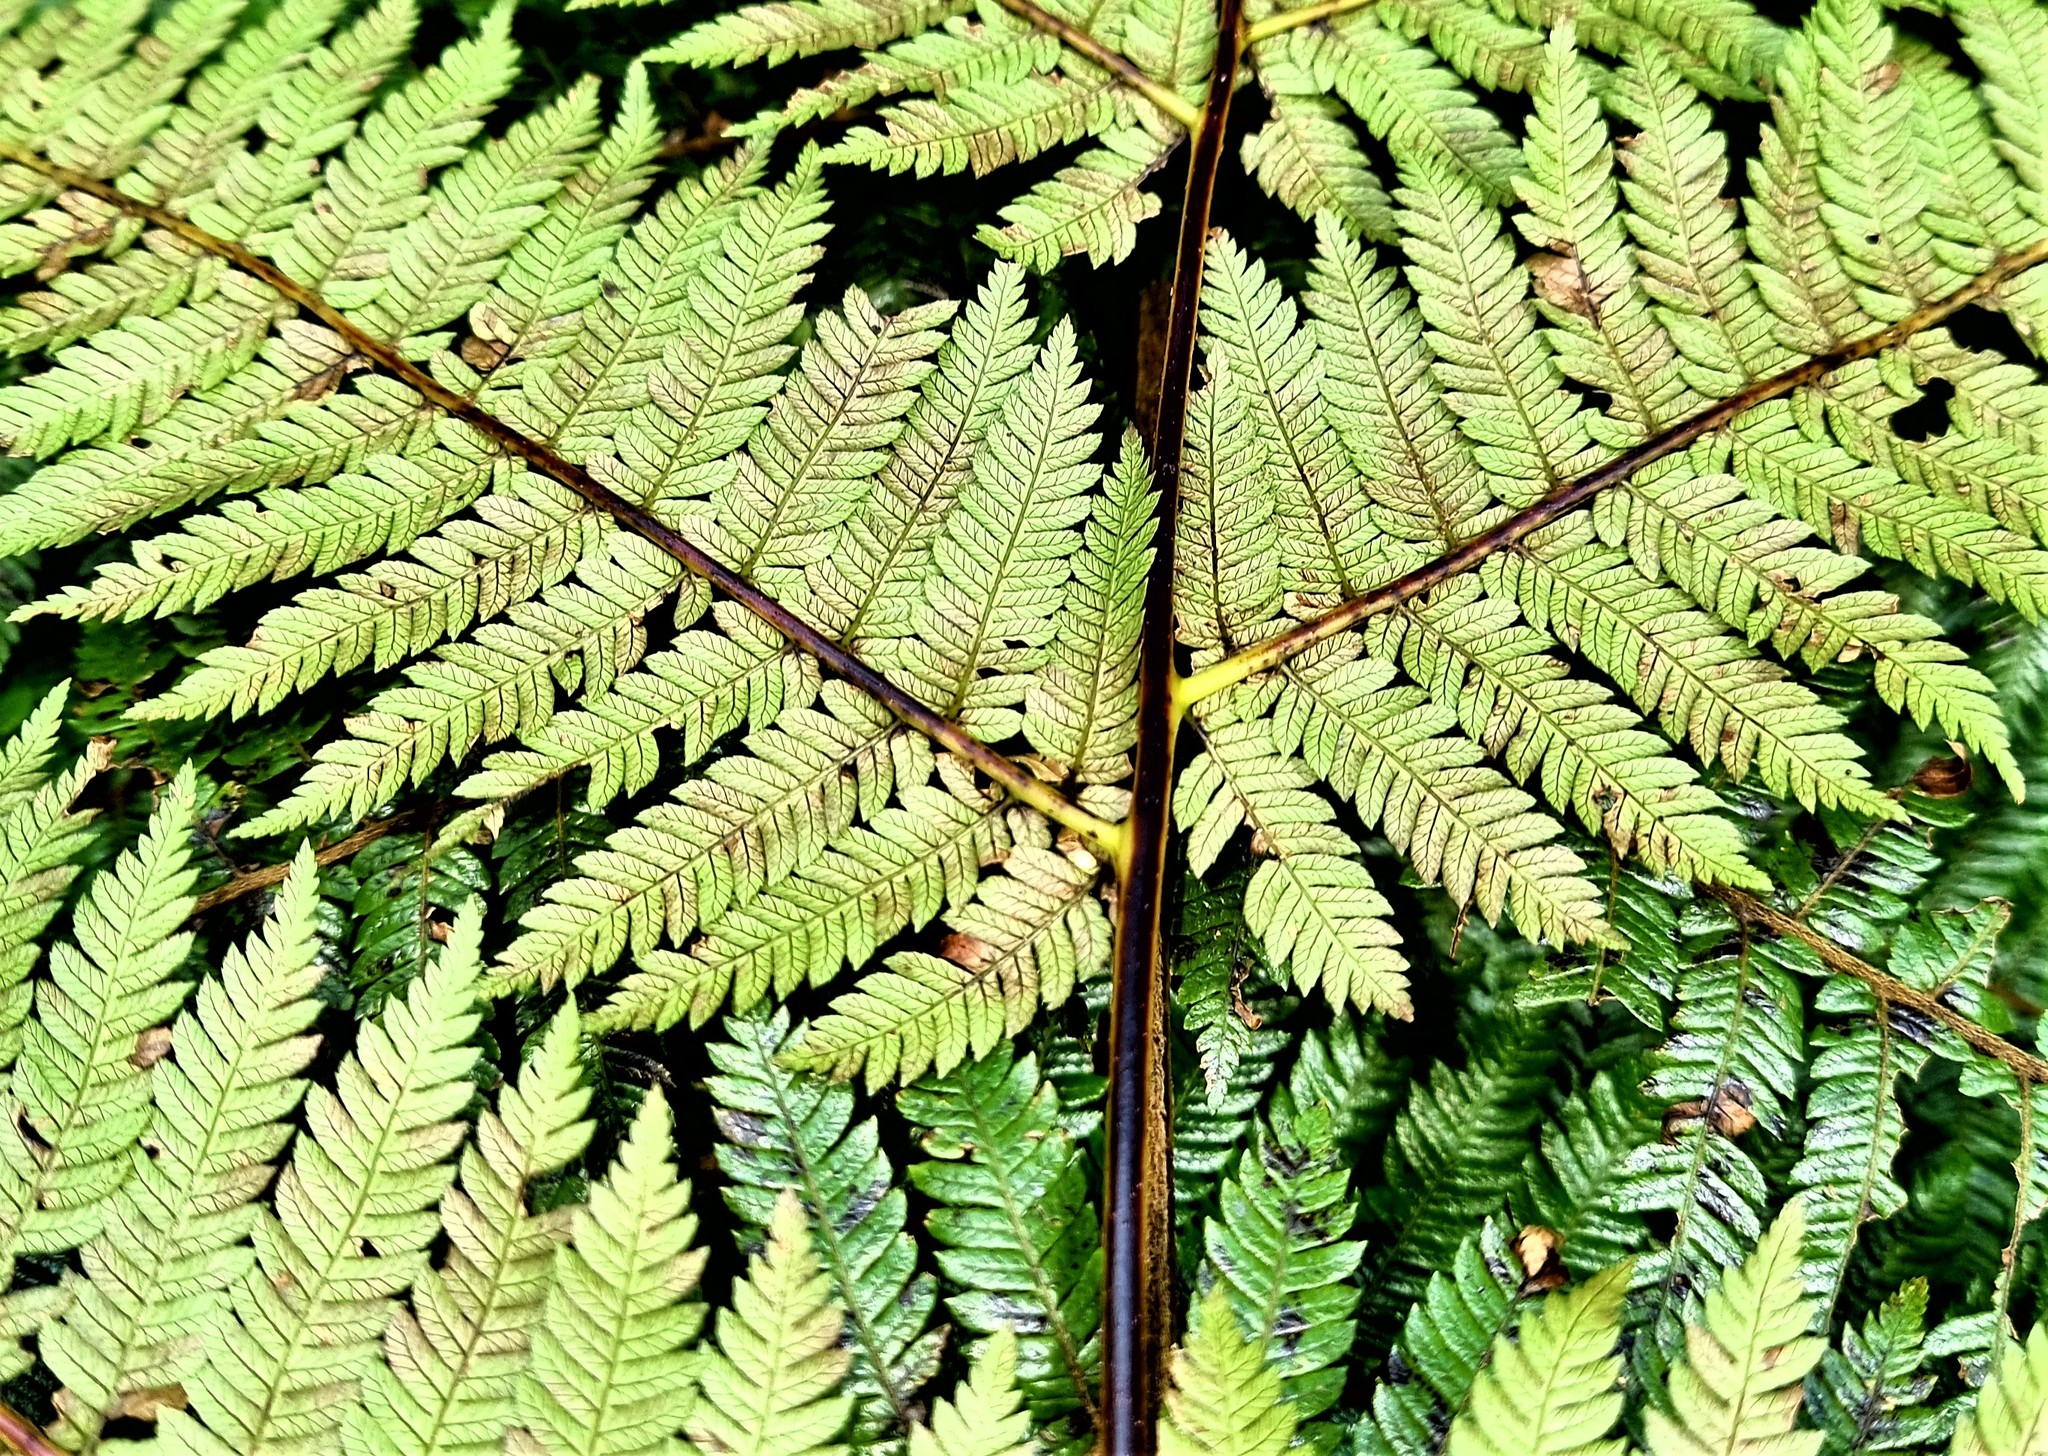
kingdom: Plantae
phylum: Tracheophyta
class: Polypodiopsida
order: Cyatheales
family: Cyatheaceae
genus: Alsophila
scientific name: Alsophila smithii
